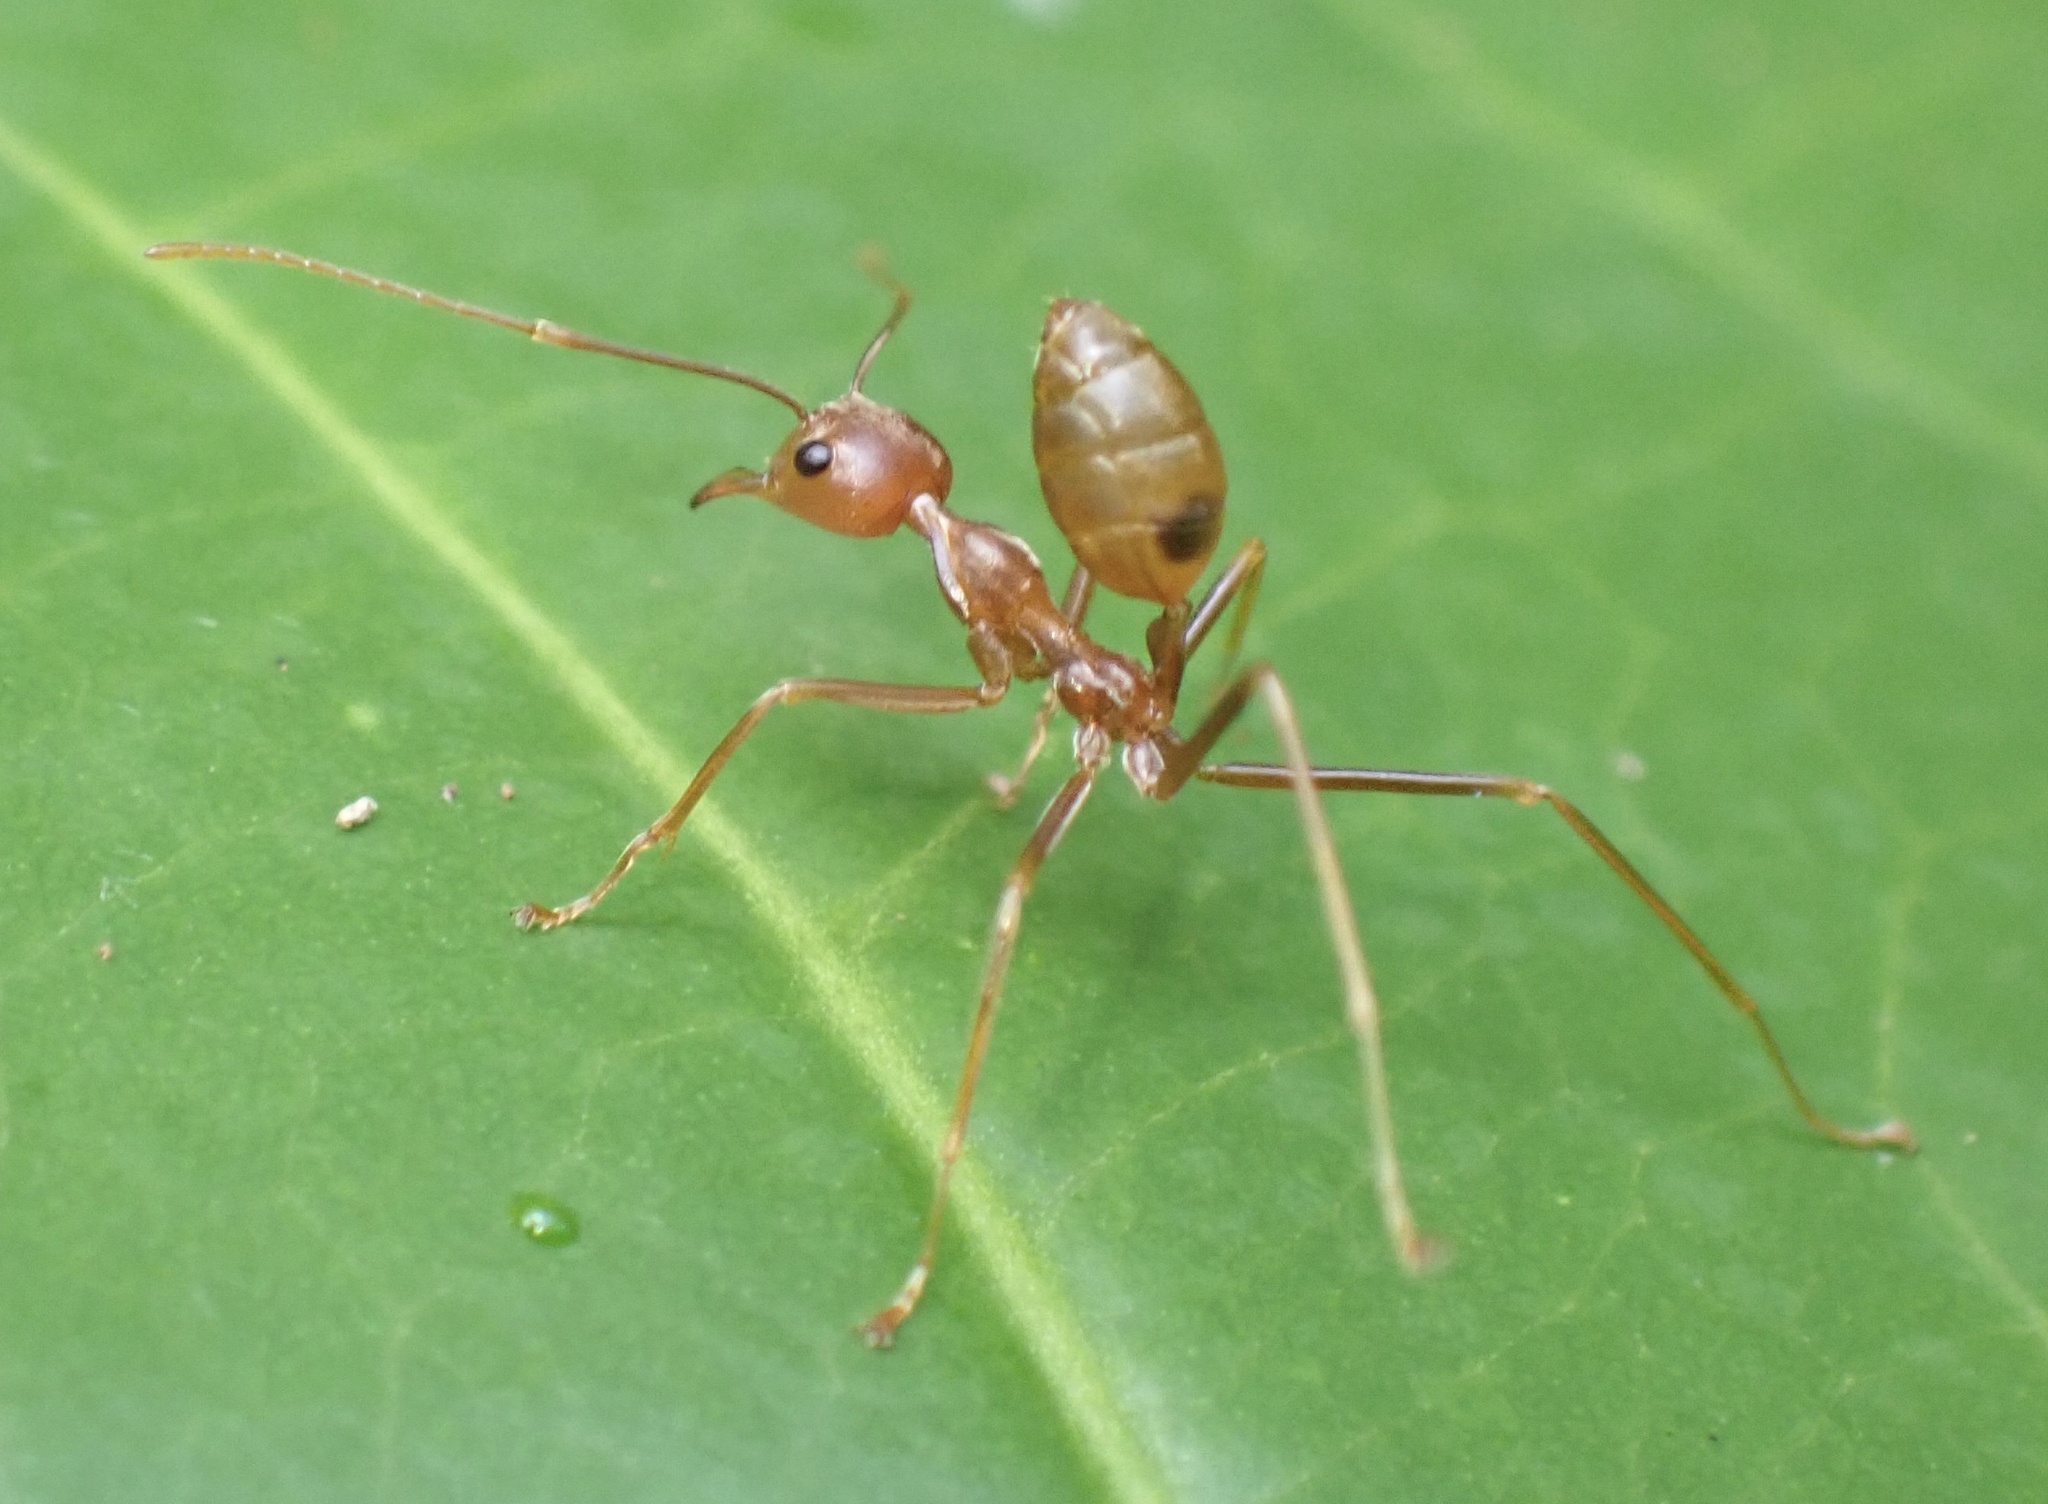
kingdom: Animalia
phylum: Arthropoda
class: Insecta
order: Hymenoptera
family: Formicidae
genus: Oecophylla
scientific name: Oecophylla smaragdina
